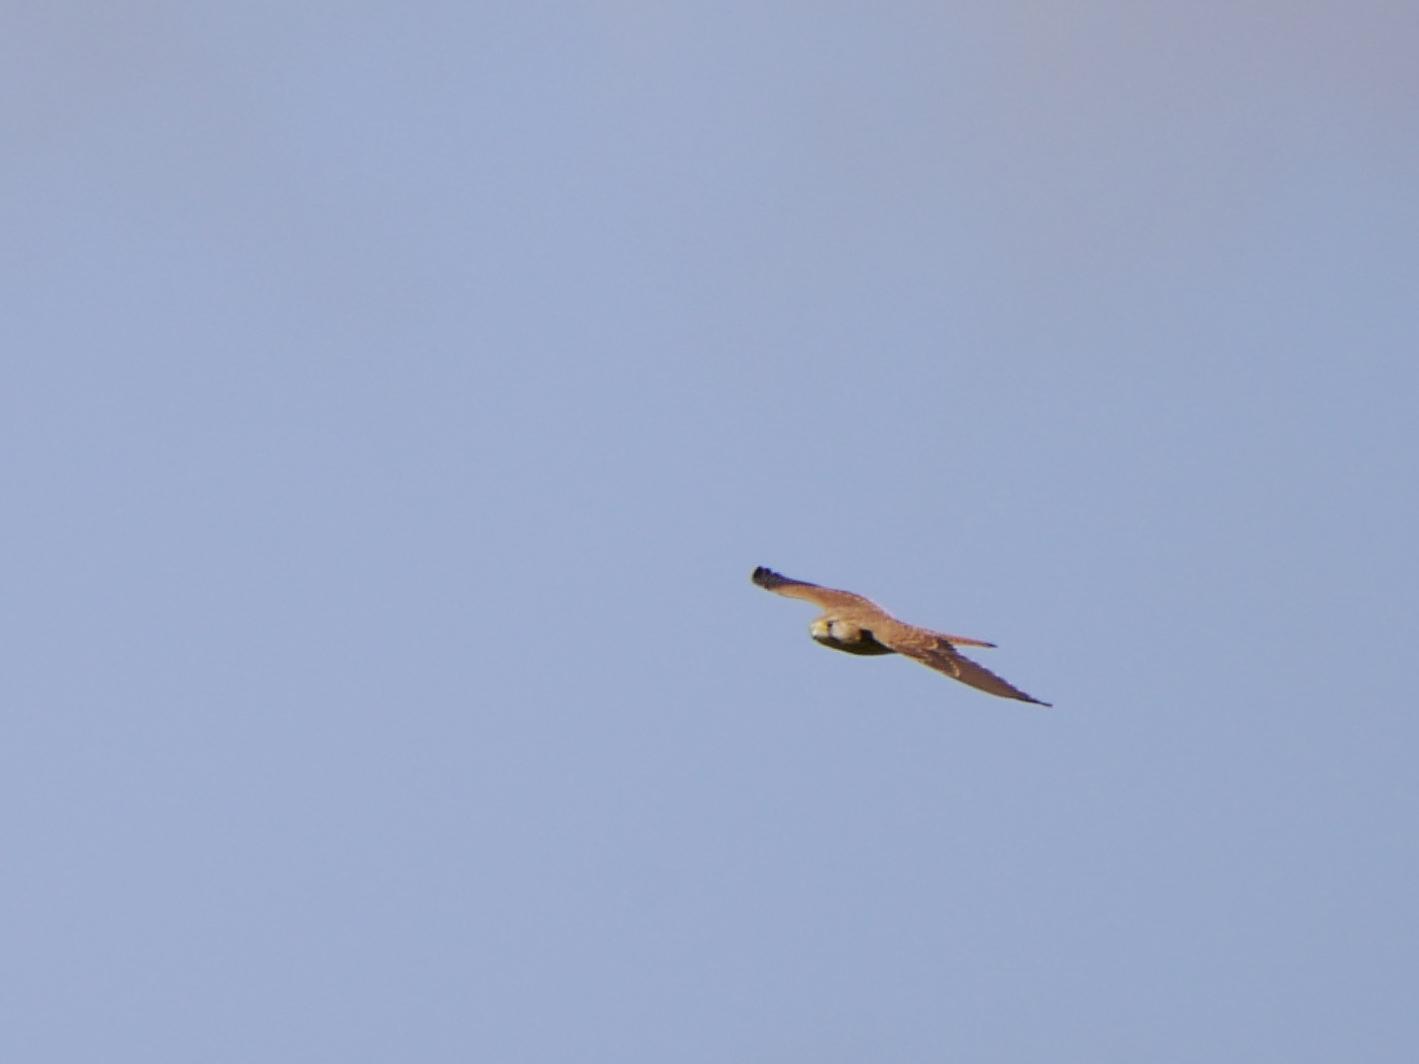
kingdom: Animalia
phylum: Chordata
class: Aves
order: Falconiformes
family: Falconidae
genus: Falco
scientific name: Falco tinnunculus
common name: Common kestrel
